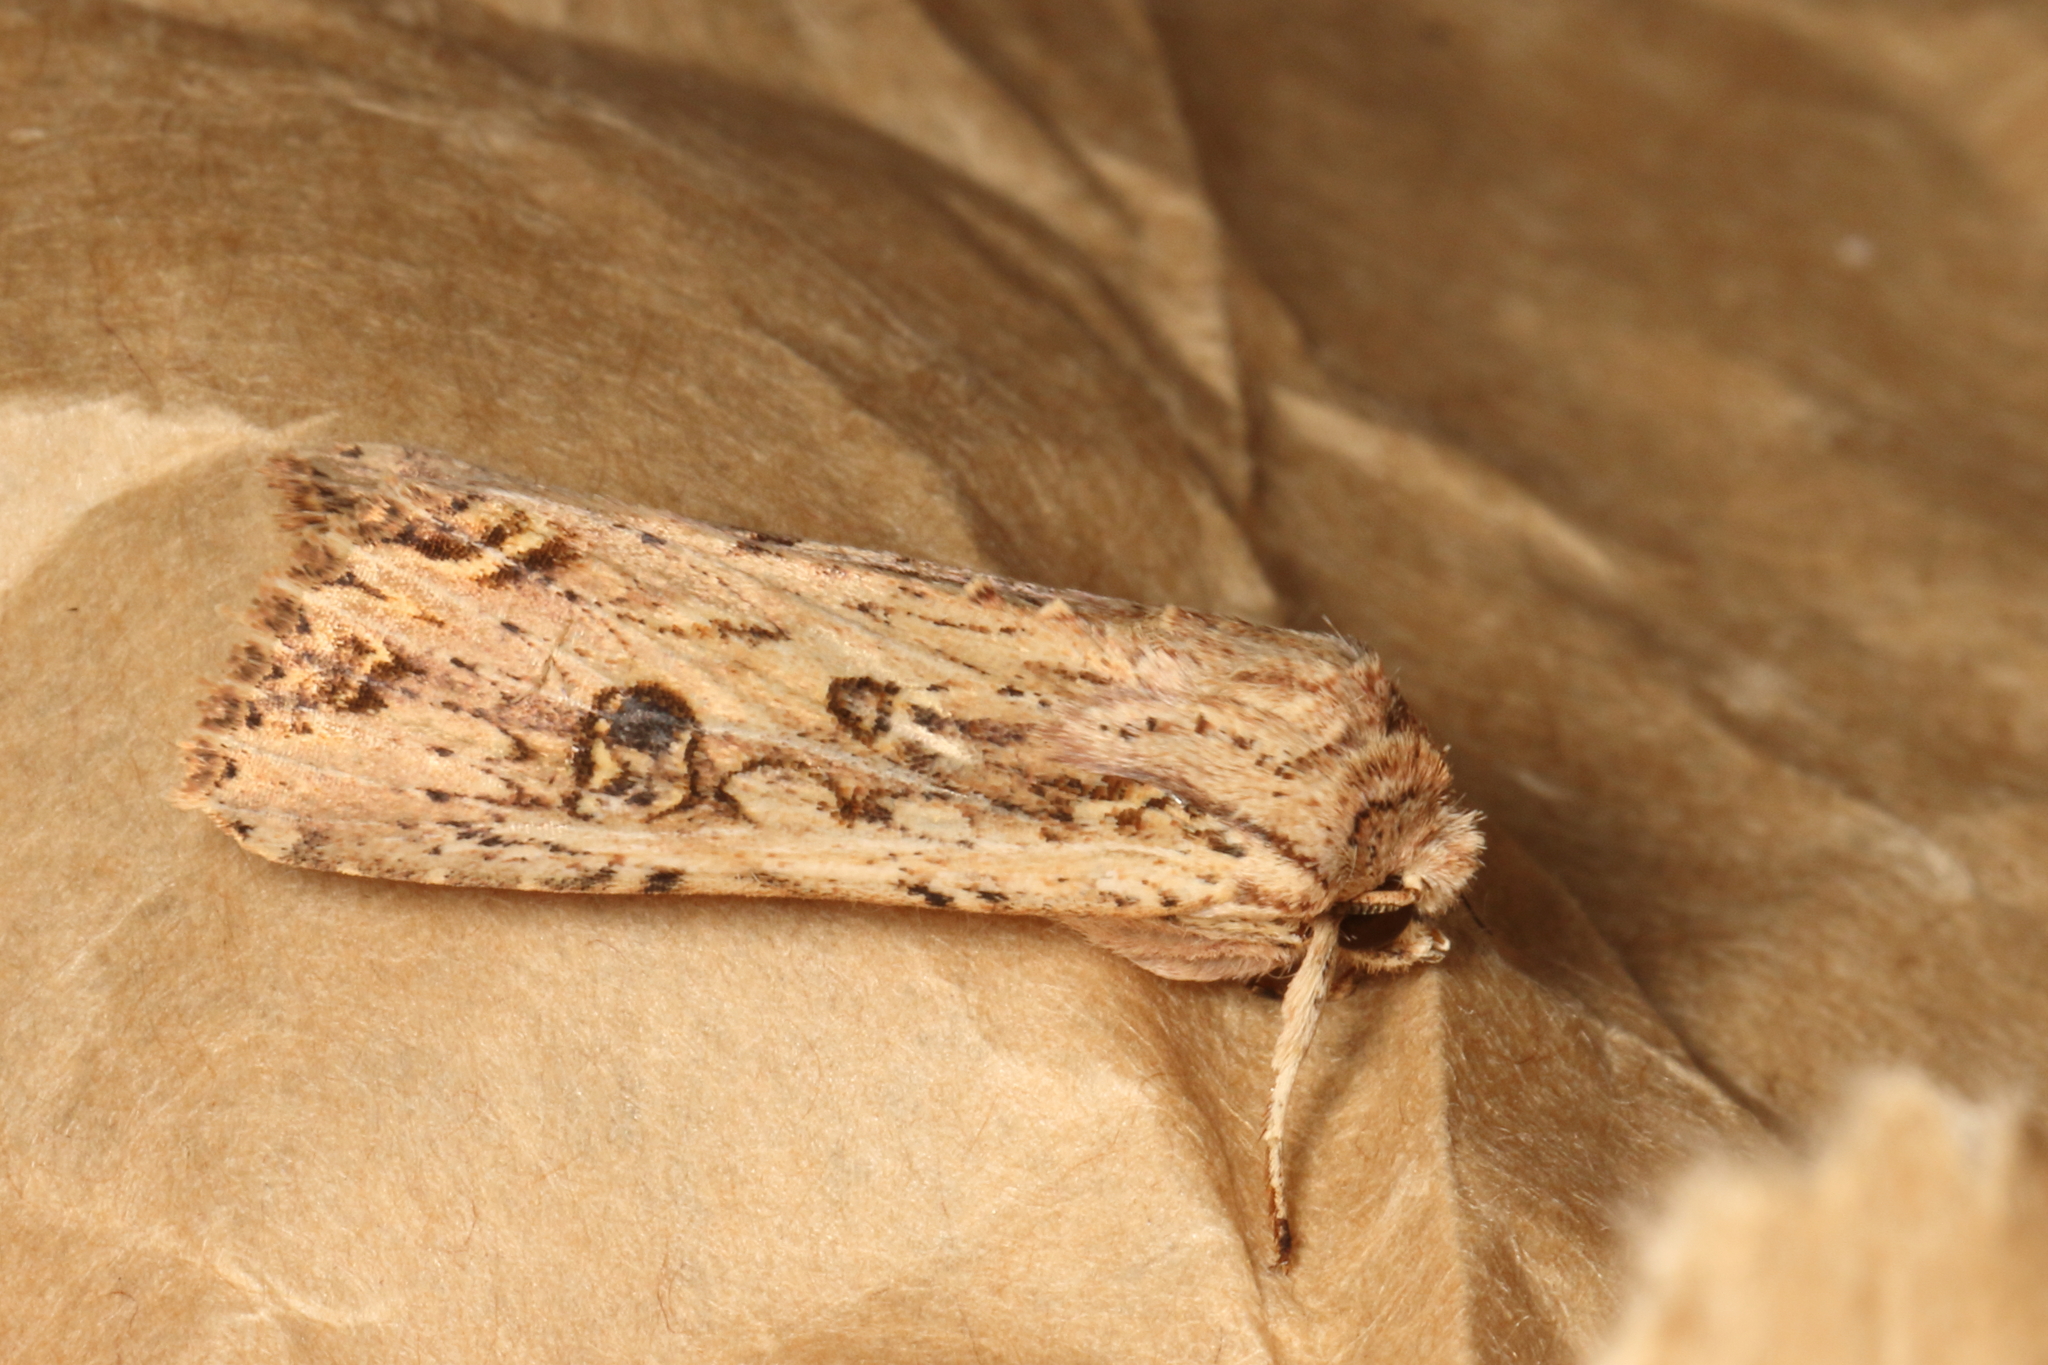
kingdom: Animalia
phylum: Arthropoda
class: Insecta
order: Lepidoptera
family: Noctuidae
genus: Ichneutica
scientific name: Ichneutica lignana
